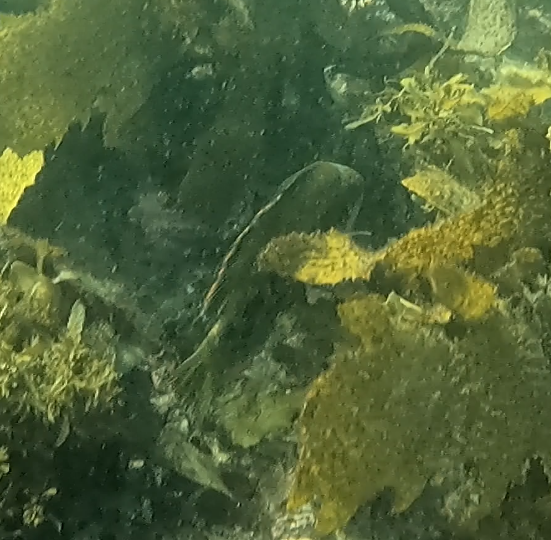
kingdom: Animalia
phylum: Chordata
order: Perciformes
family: Odacidae
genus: Heteroscarus
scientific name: Heteroscarus acroptilus
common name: Marine rainbowfish
